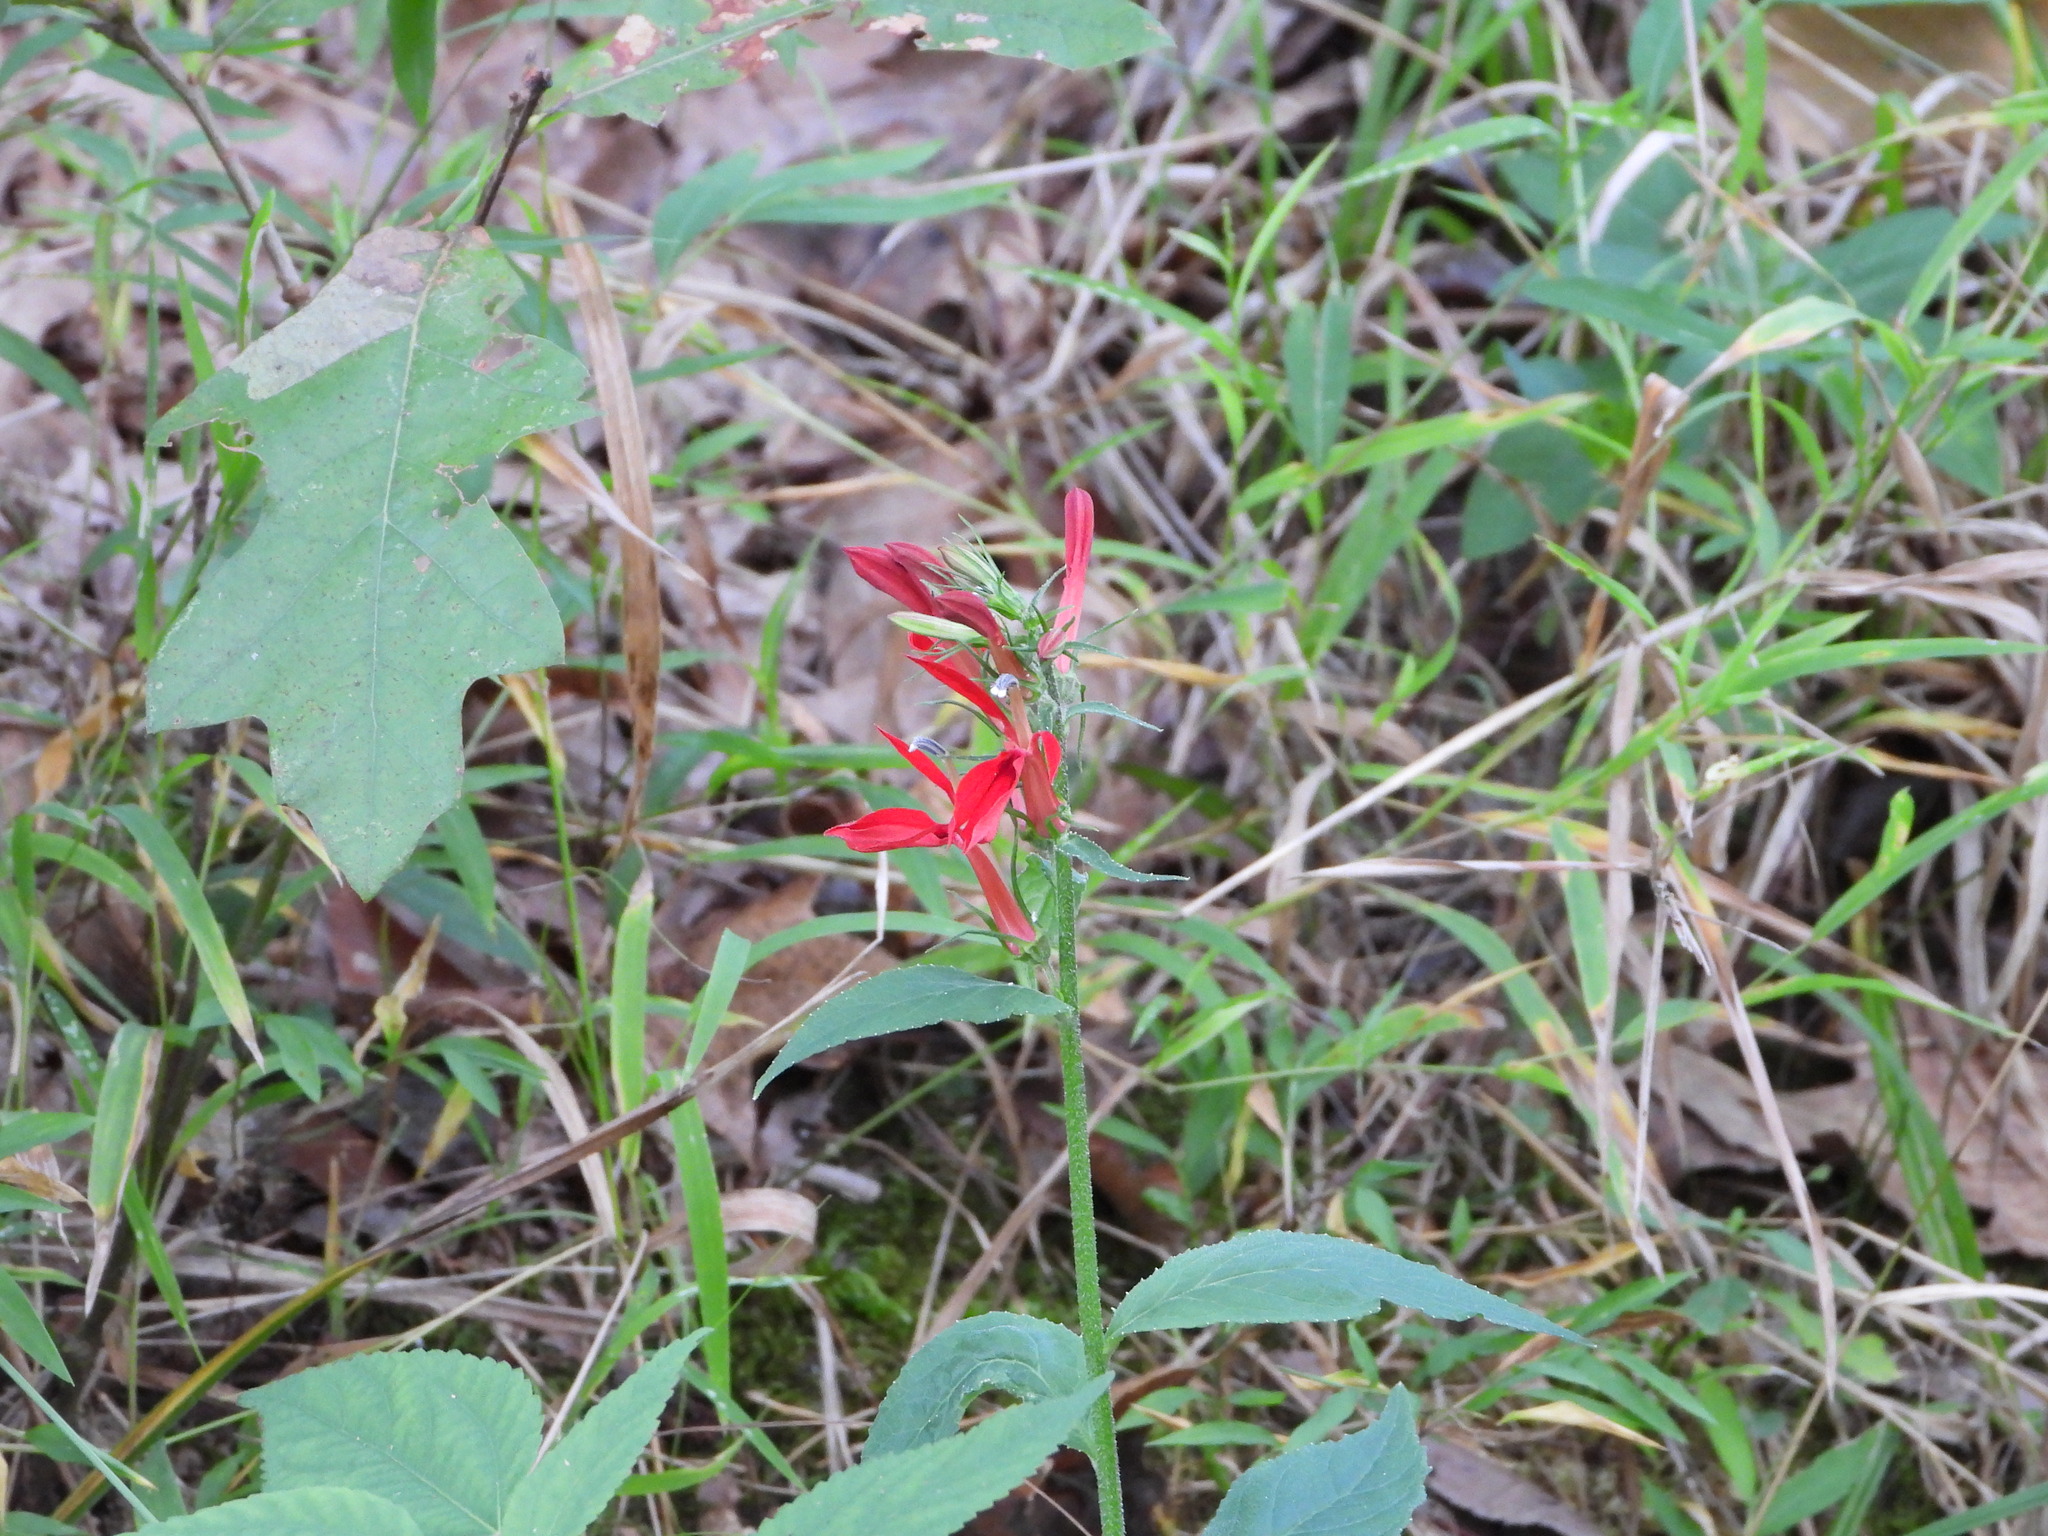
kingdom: Plantae
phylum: Tracheophyta
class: Magnoliopsida
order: Asterales
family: Campanulaceae
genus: Lobelia
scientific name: Lobelia cardinalis
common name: Cardinal flower
